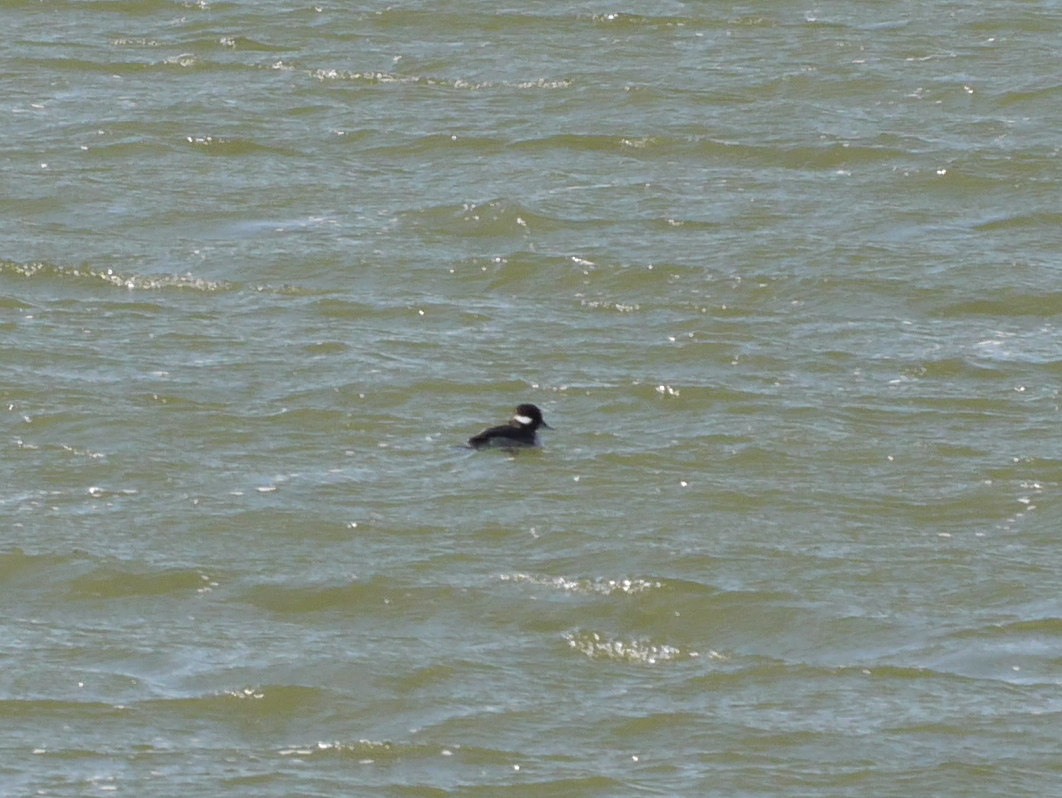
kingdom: Animalia
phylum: Chordata
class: Aves
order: Anseriformes
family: Anatidae
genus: Bucephala
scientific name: Bucephala albeola
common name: Bufflehead
